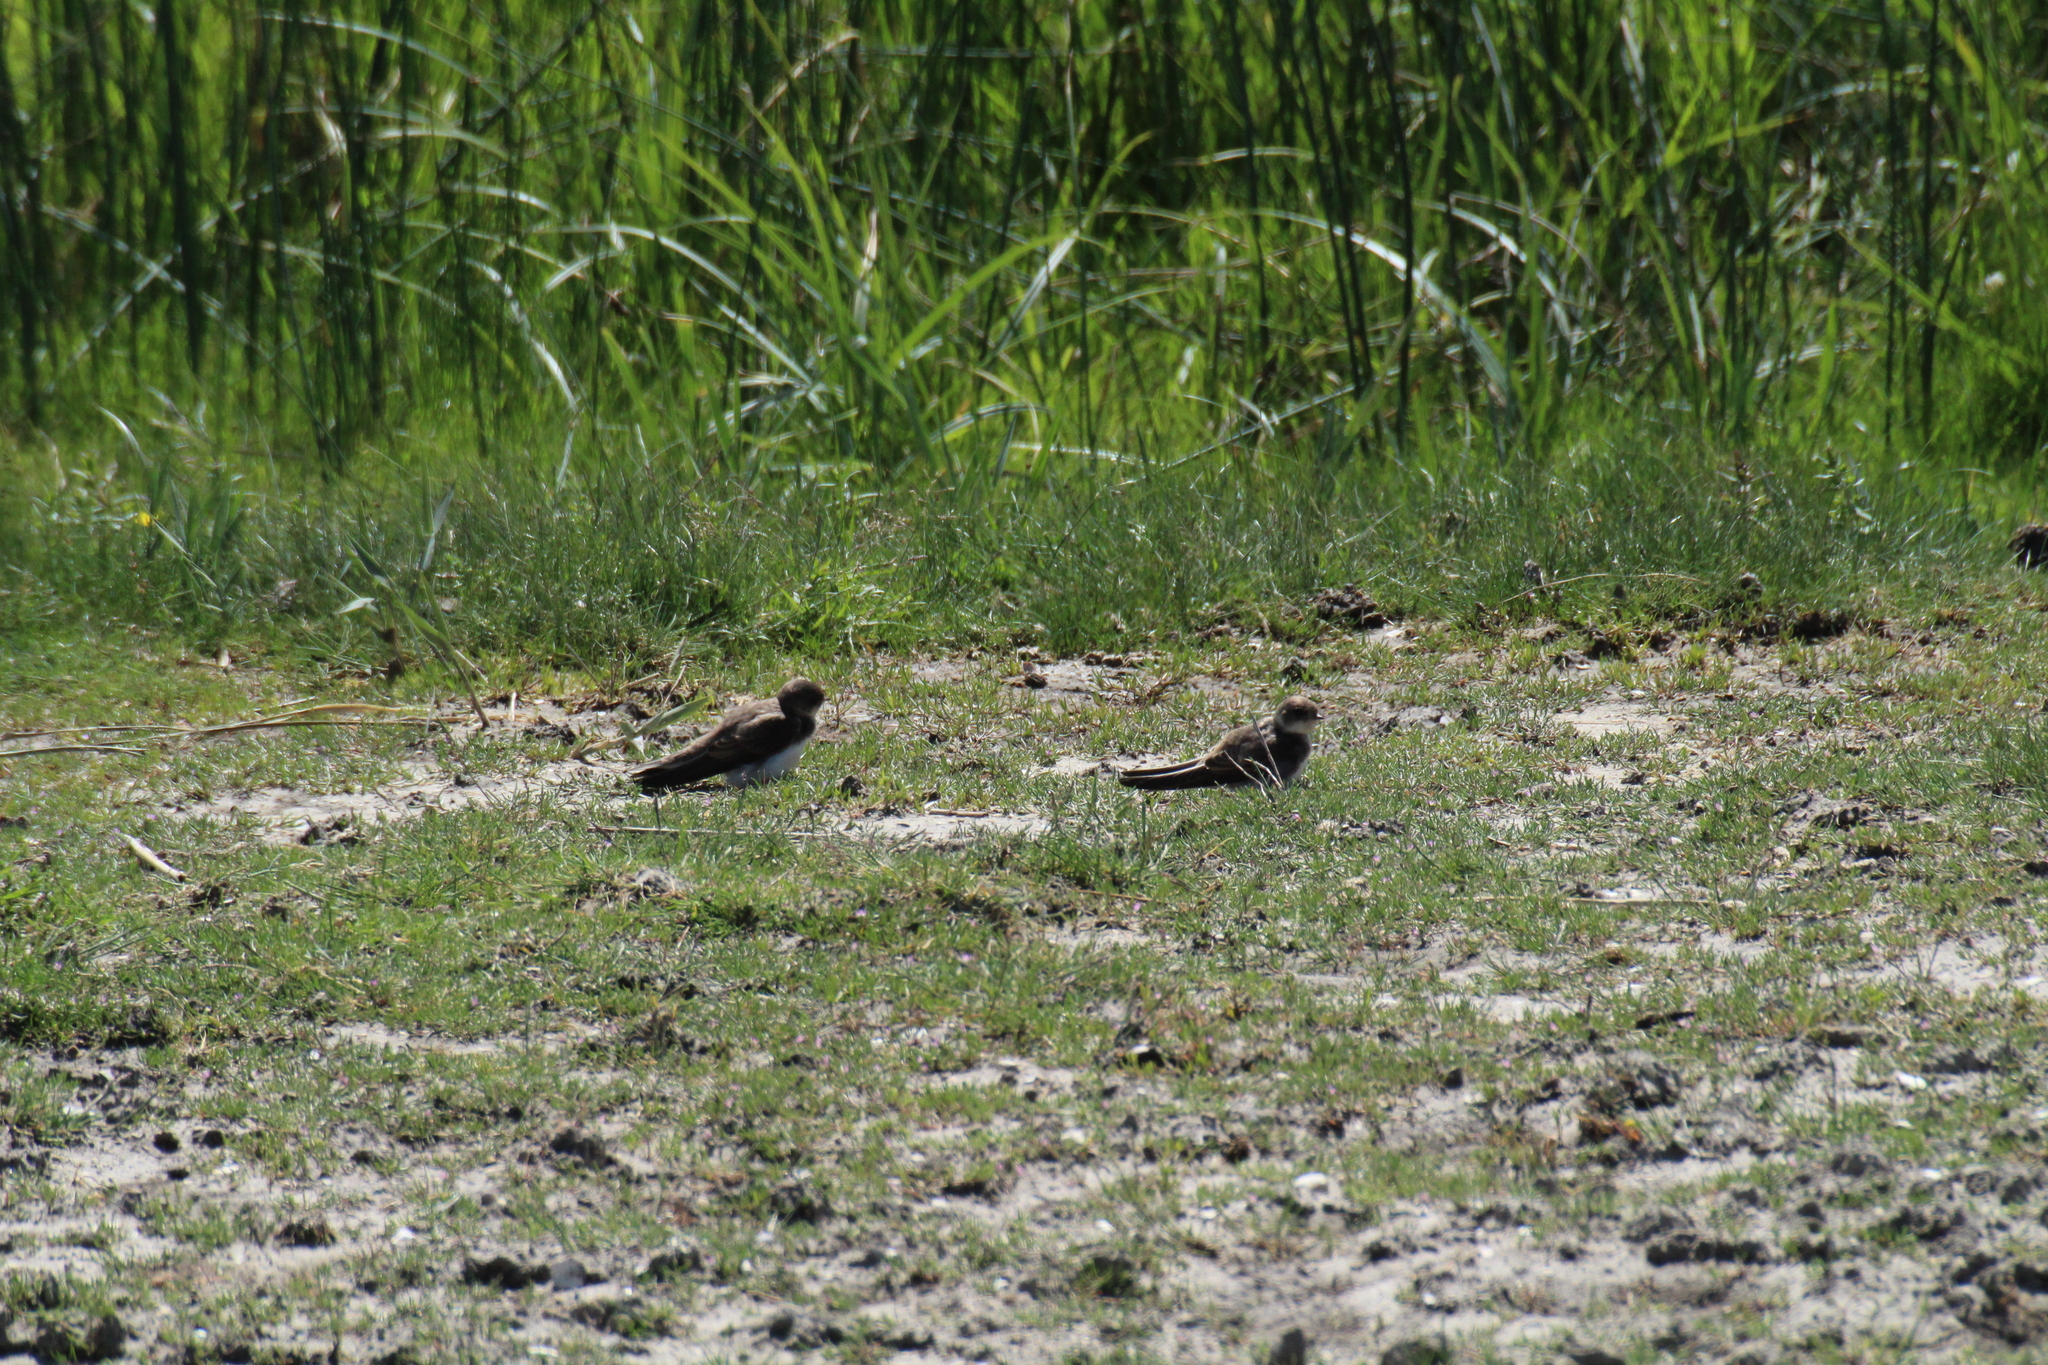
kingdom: Animalia
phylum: Chordata
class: Aves
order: Passeriformes
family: Hirundinidae
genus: Riparia
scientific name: Riparia riparia
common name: Sand martin
